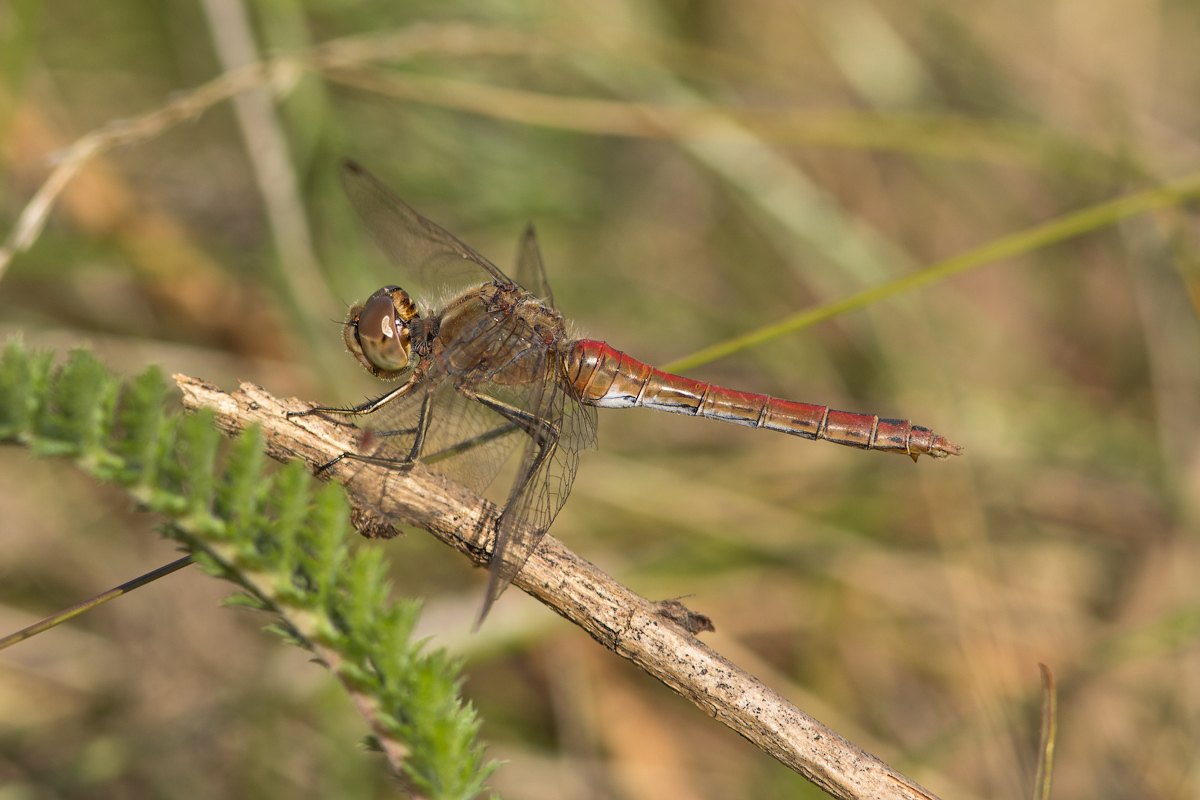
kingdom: Animalia
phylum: Arthropoda
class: Insecta
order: Odonata
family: Libellulidae
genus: Sympetrum
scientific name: Sympetrum vulgatum
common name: Vagrant darter
